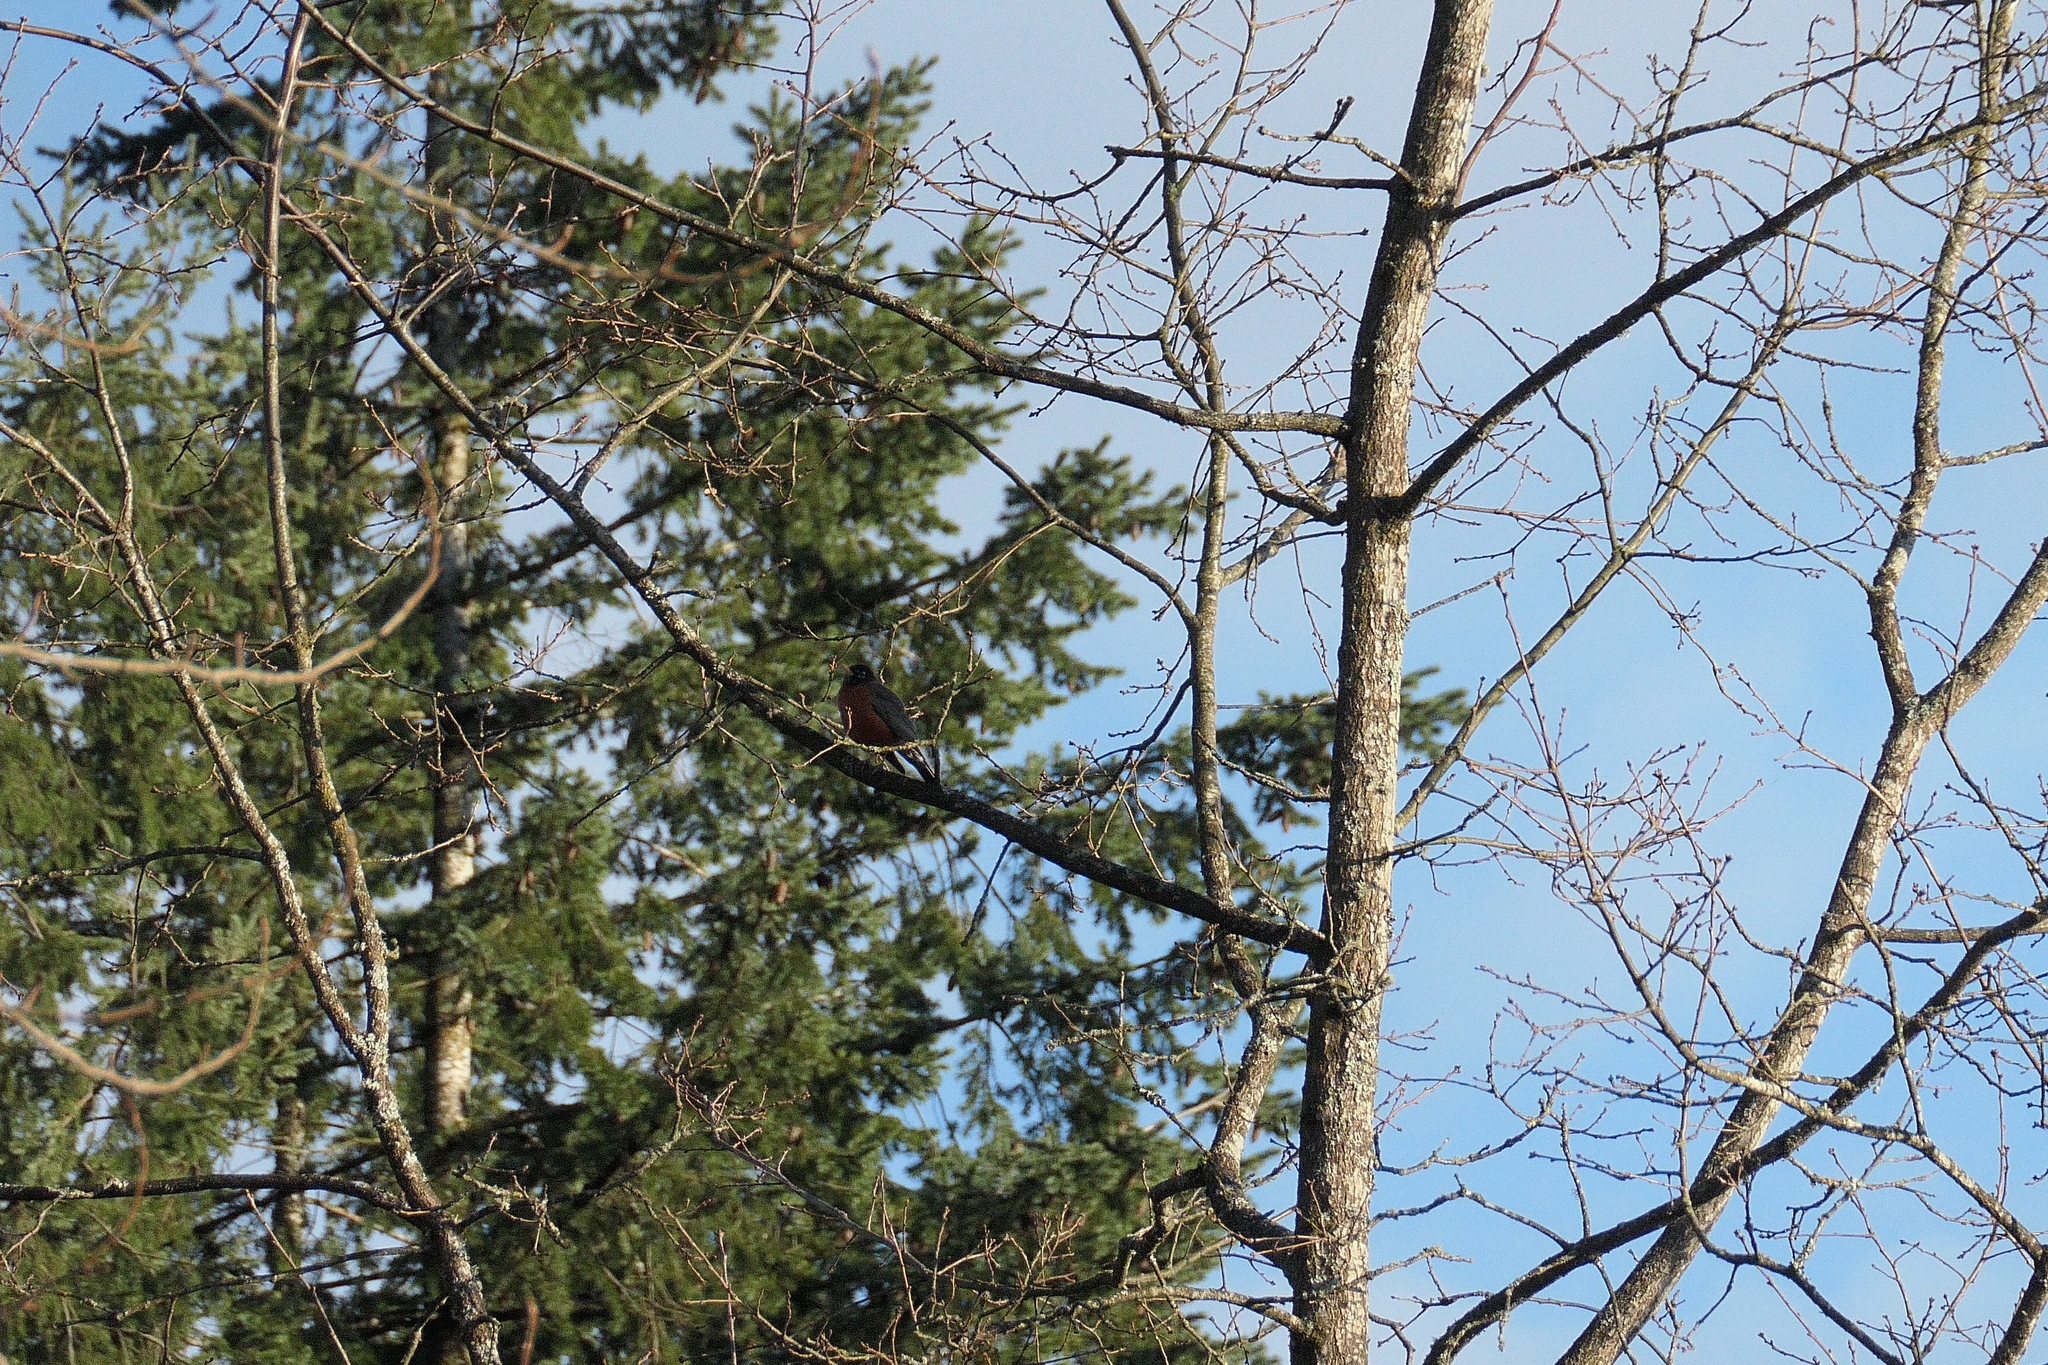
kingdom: Animalia
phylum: Chordata
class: Aves
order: Passeriformes
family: Turdidae
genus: Turdus
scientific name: Turdus migratorius
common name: American robin
